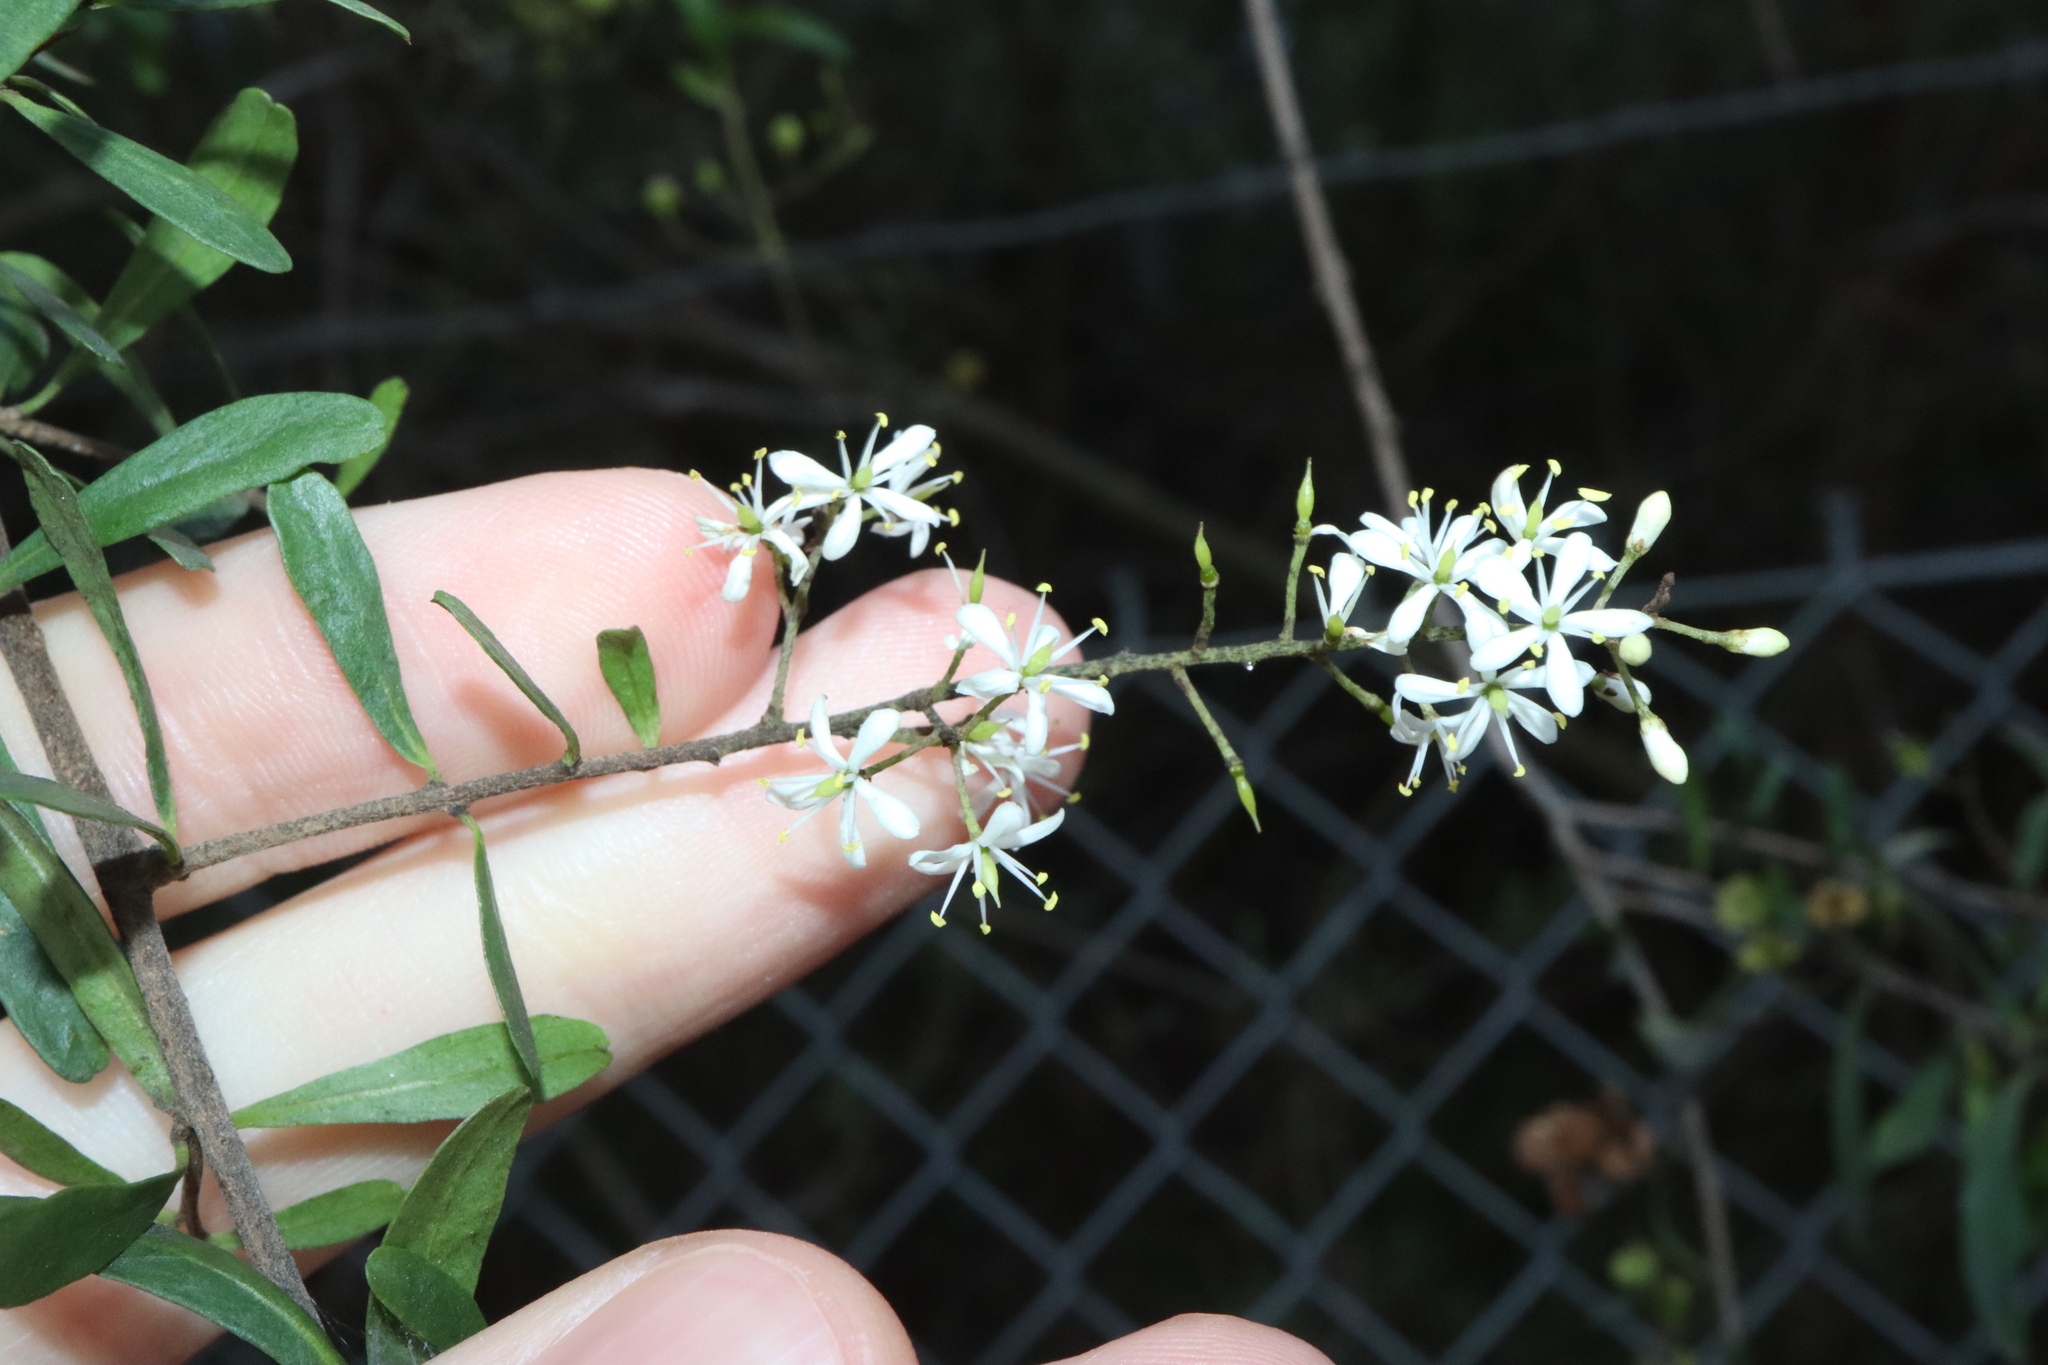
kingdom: Plantae
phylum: Tracheophyta
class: Magnoliopsida
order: Apiales
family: Pittosporaceae
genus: Bursaria
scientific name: Bursaria spinosa
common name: Australian blackthorn
